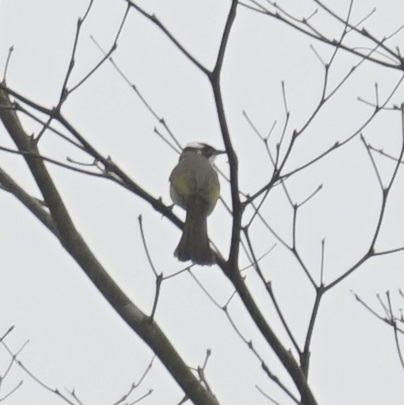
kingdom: Animalia
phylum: Chordata
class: Aves
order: Passeriformes
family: Pycnonotidae
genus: Pycnonotus
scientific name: Pycnonotus sinensis
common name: Light-vented bulbul
